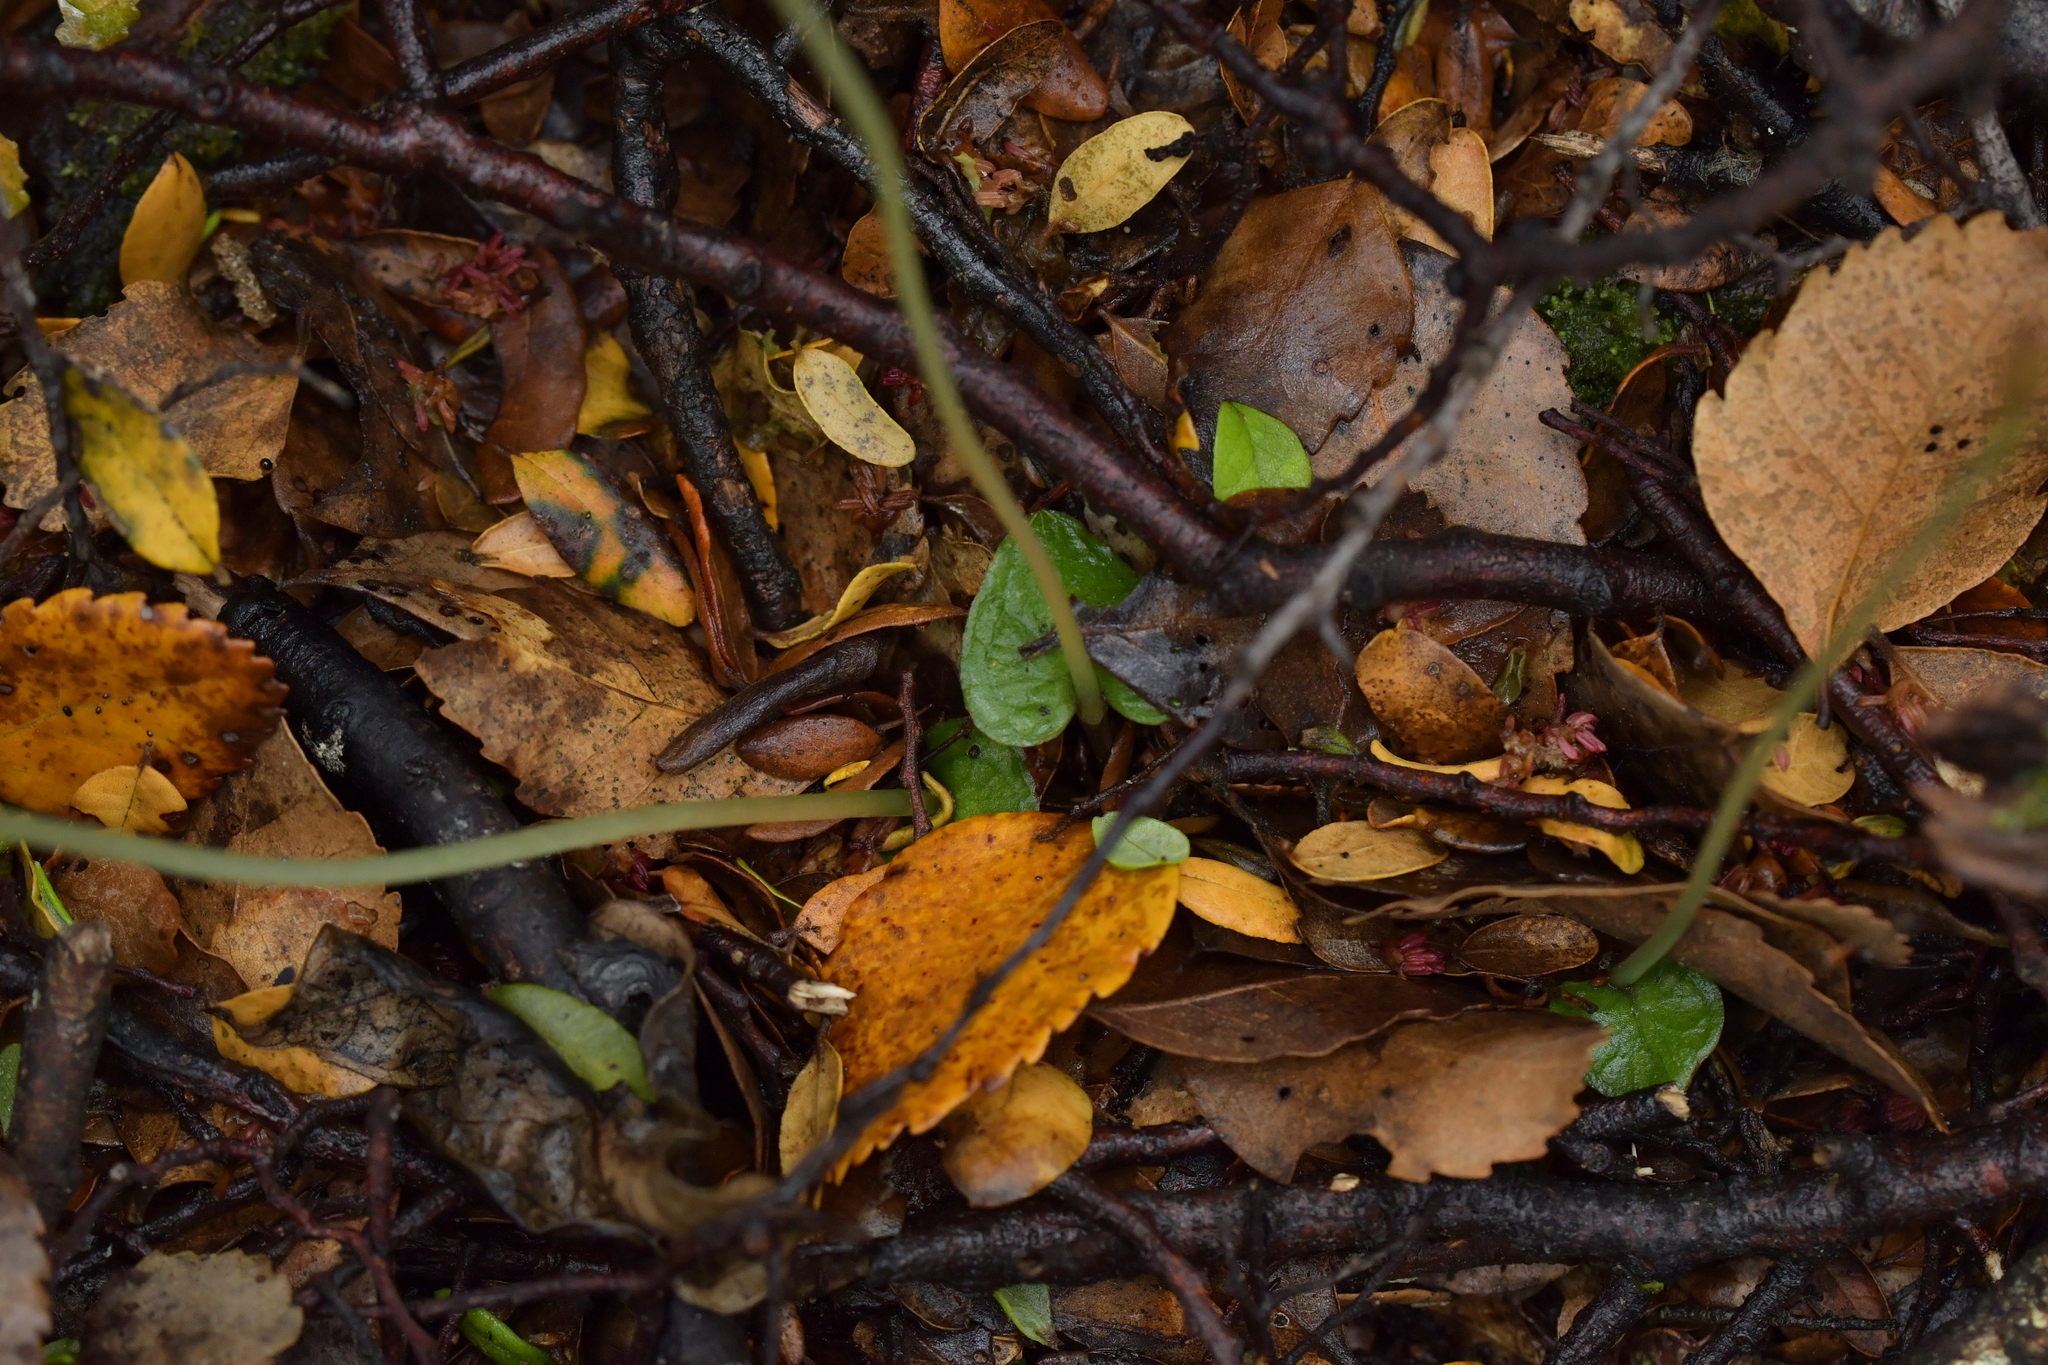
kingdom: Plantae
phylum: Tracheophyta
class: Liliopsida
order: Asparagales
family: Orchidaceae
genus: Corybas
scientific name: Corybas cheesemanii
